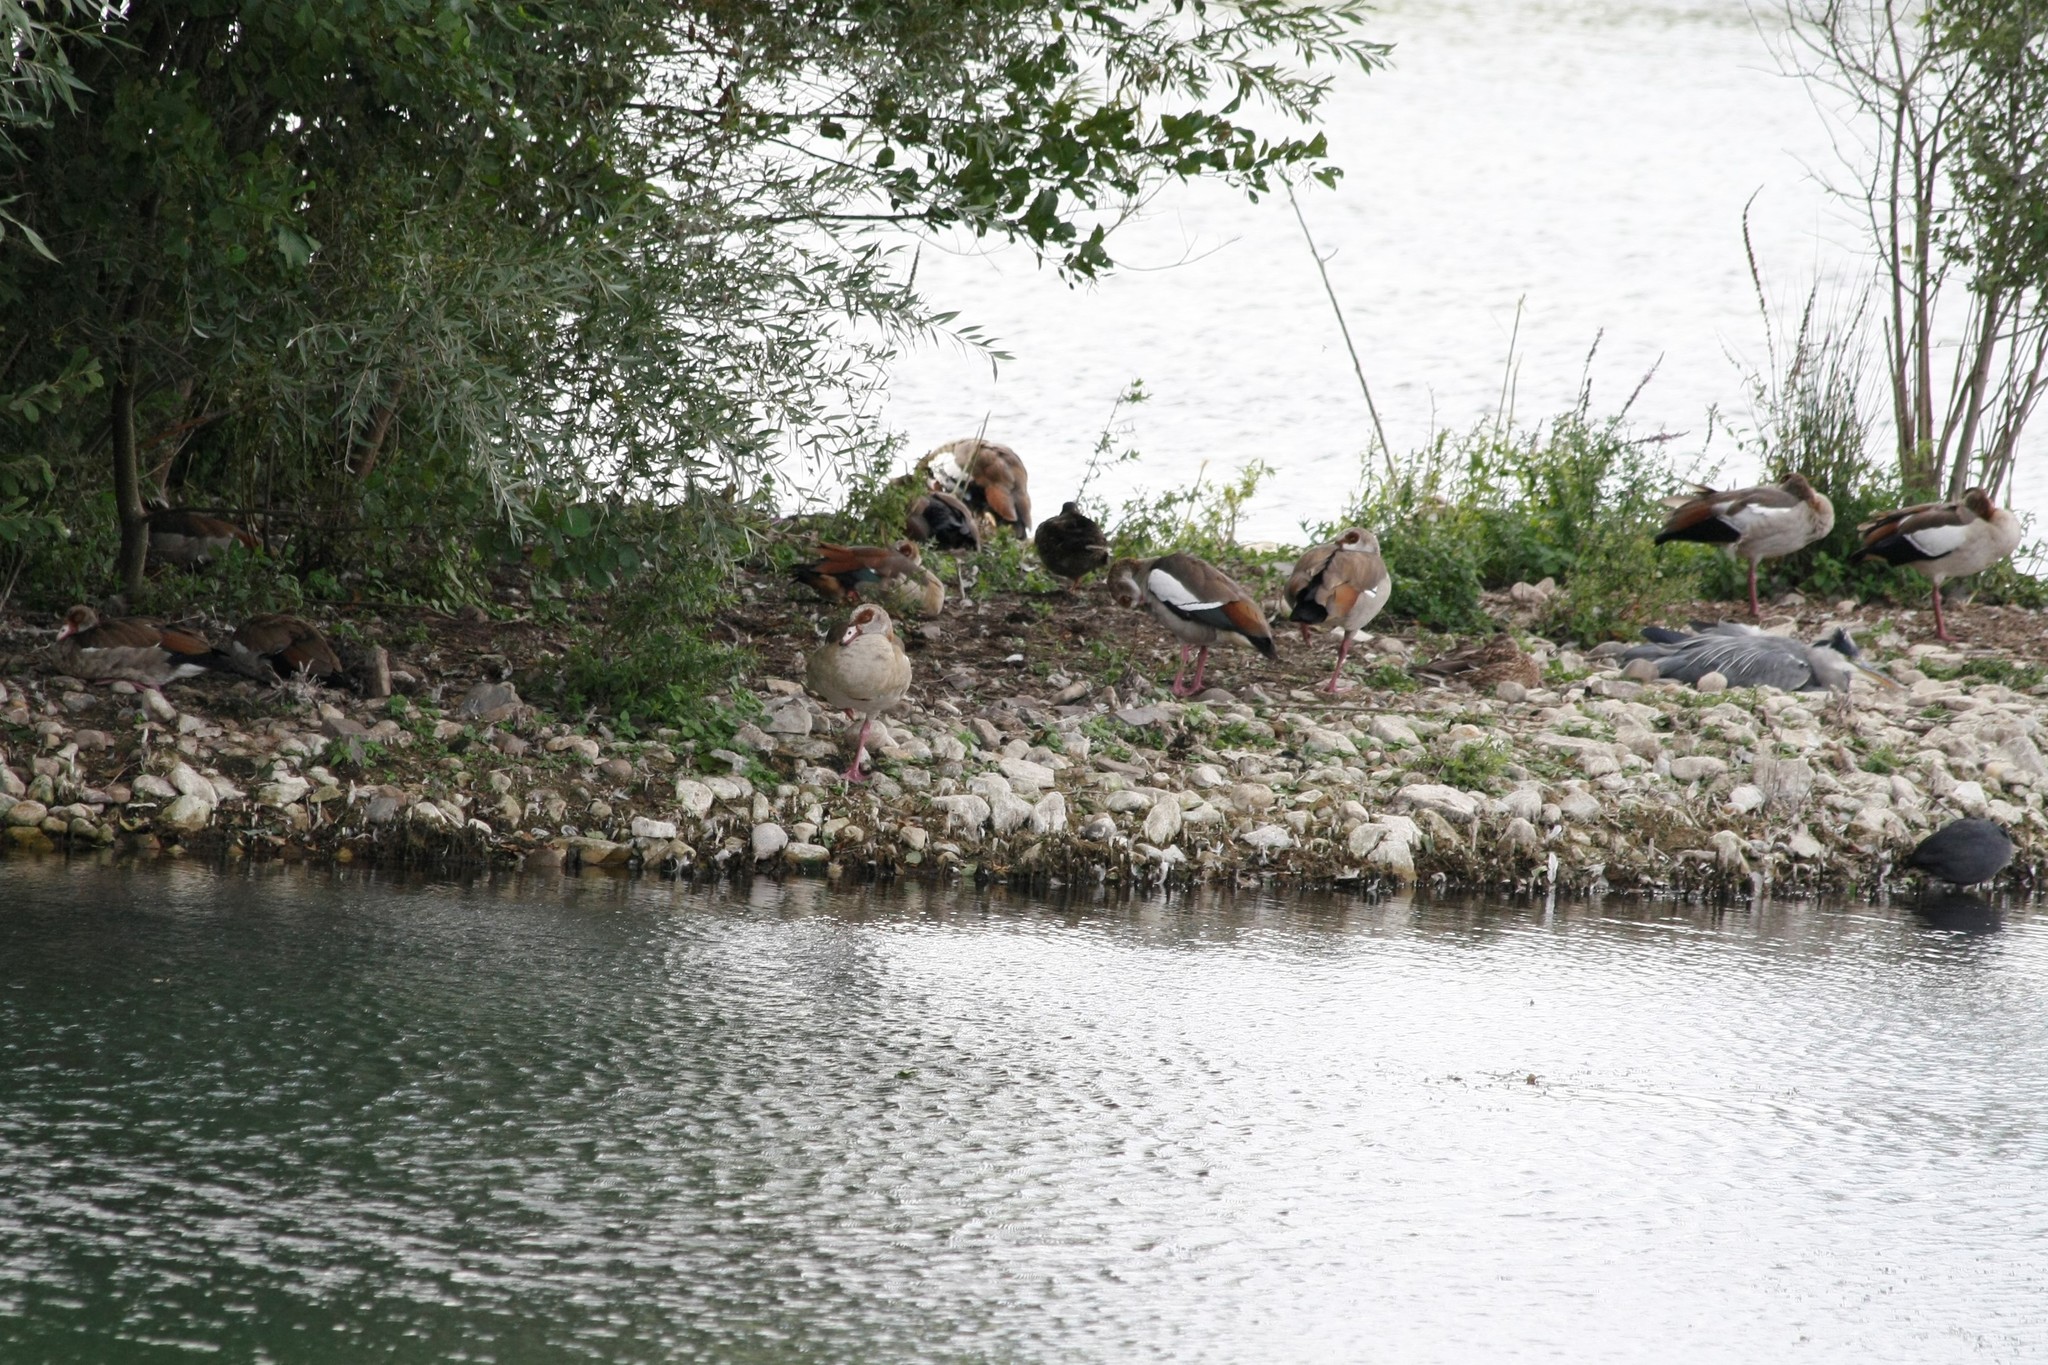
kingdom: Animalia
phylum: Chordata
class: Aves
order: Anseriformes
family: Anatidae
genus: Alopochen
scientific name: Alopochen aegyptiaca
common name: Egyptian goose
